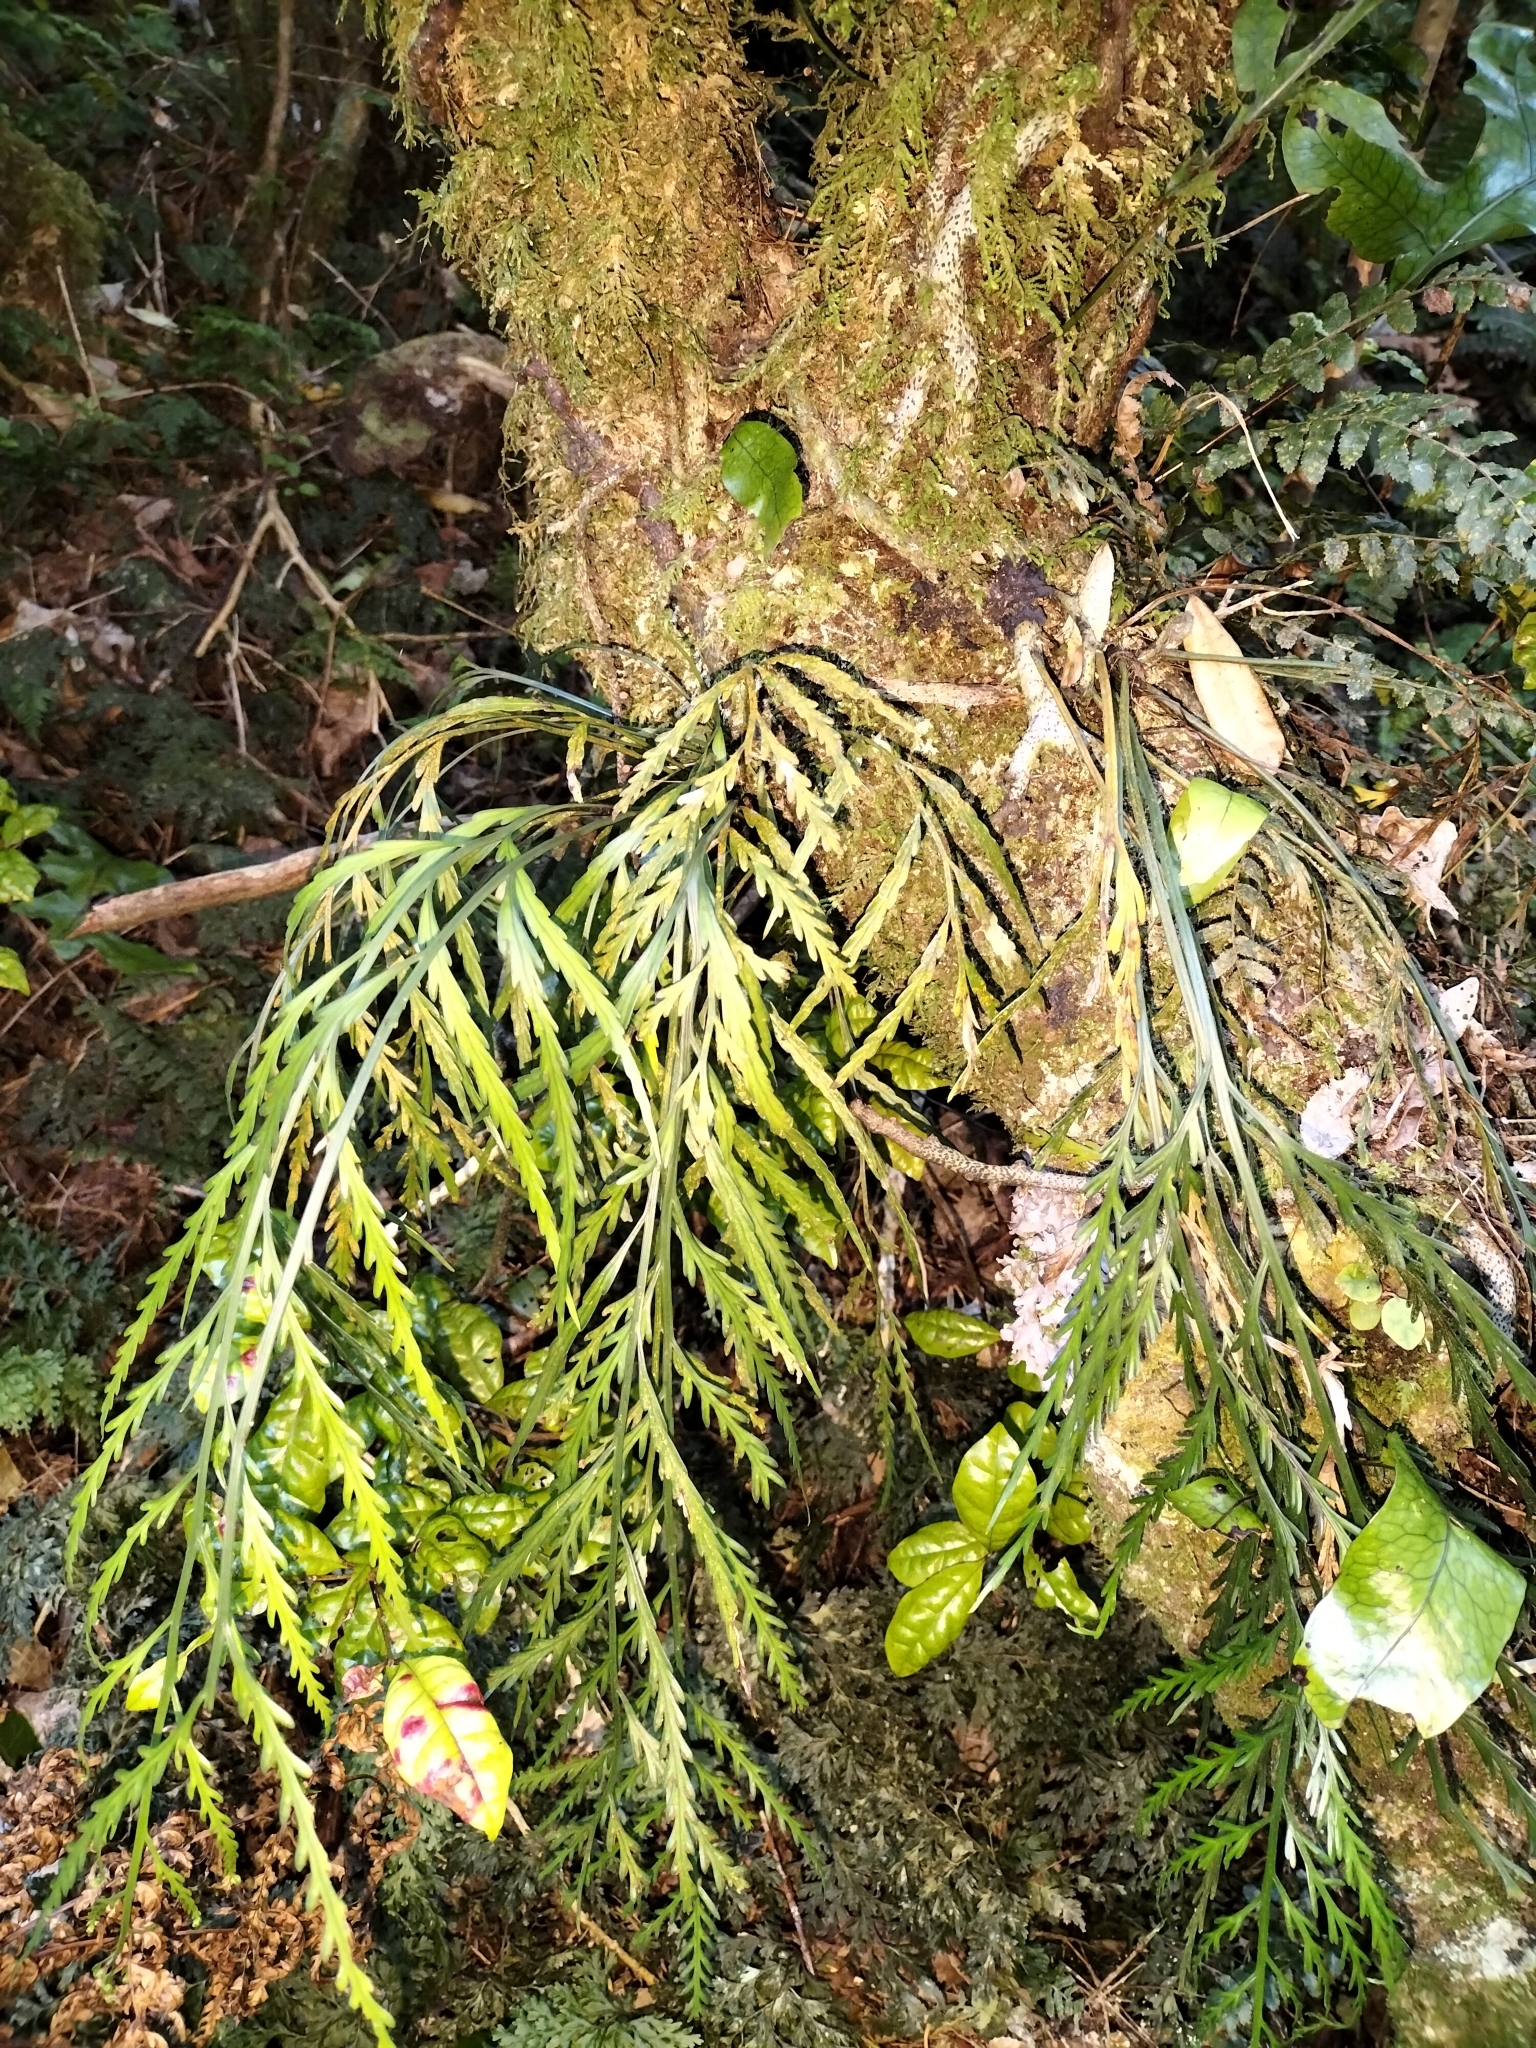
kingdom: Plantae
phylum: Tracheophyta
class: Polypodiopsida
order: Polypodiales
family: Aspleniaceae
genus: Asplenium
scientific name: Asplenium flaccidum
